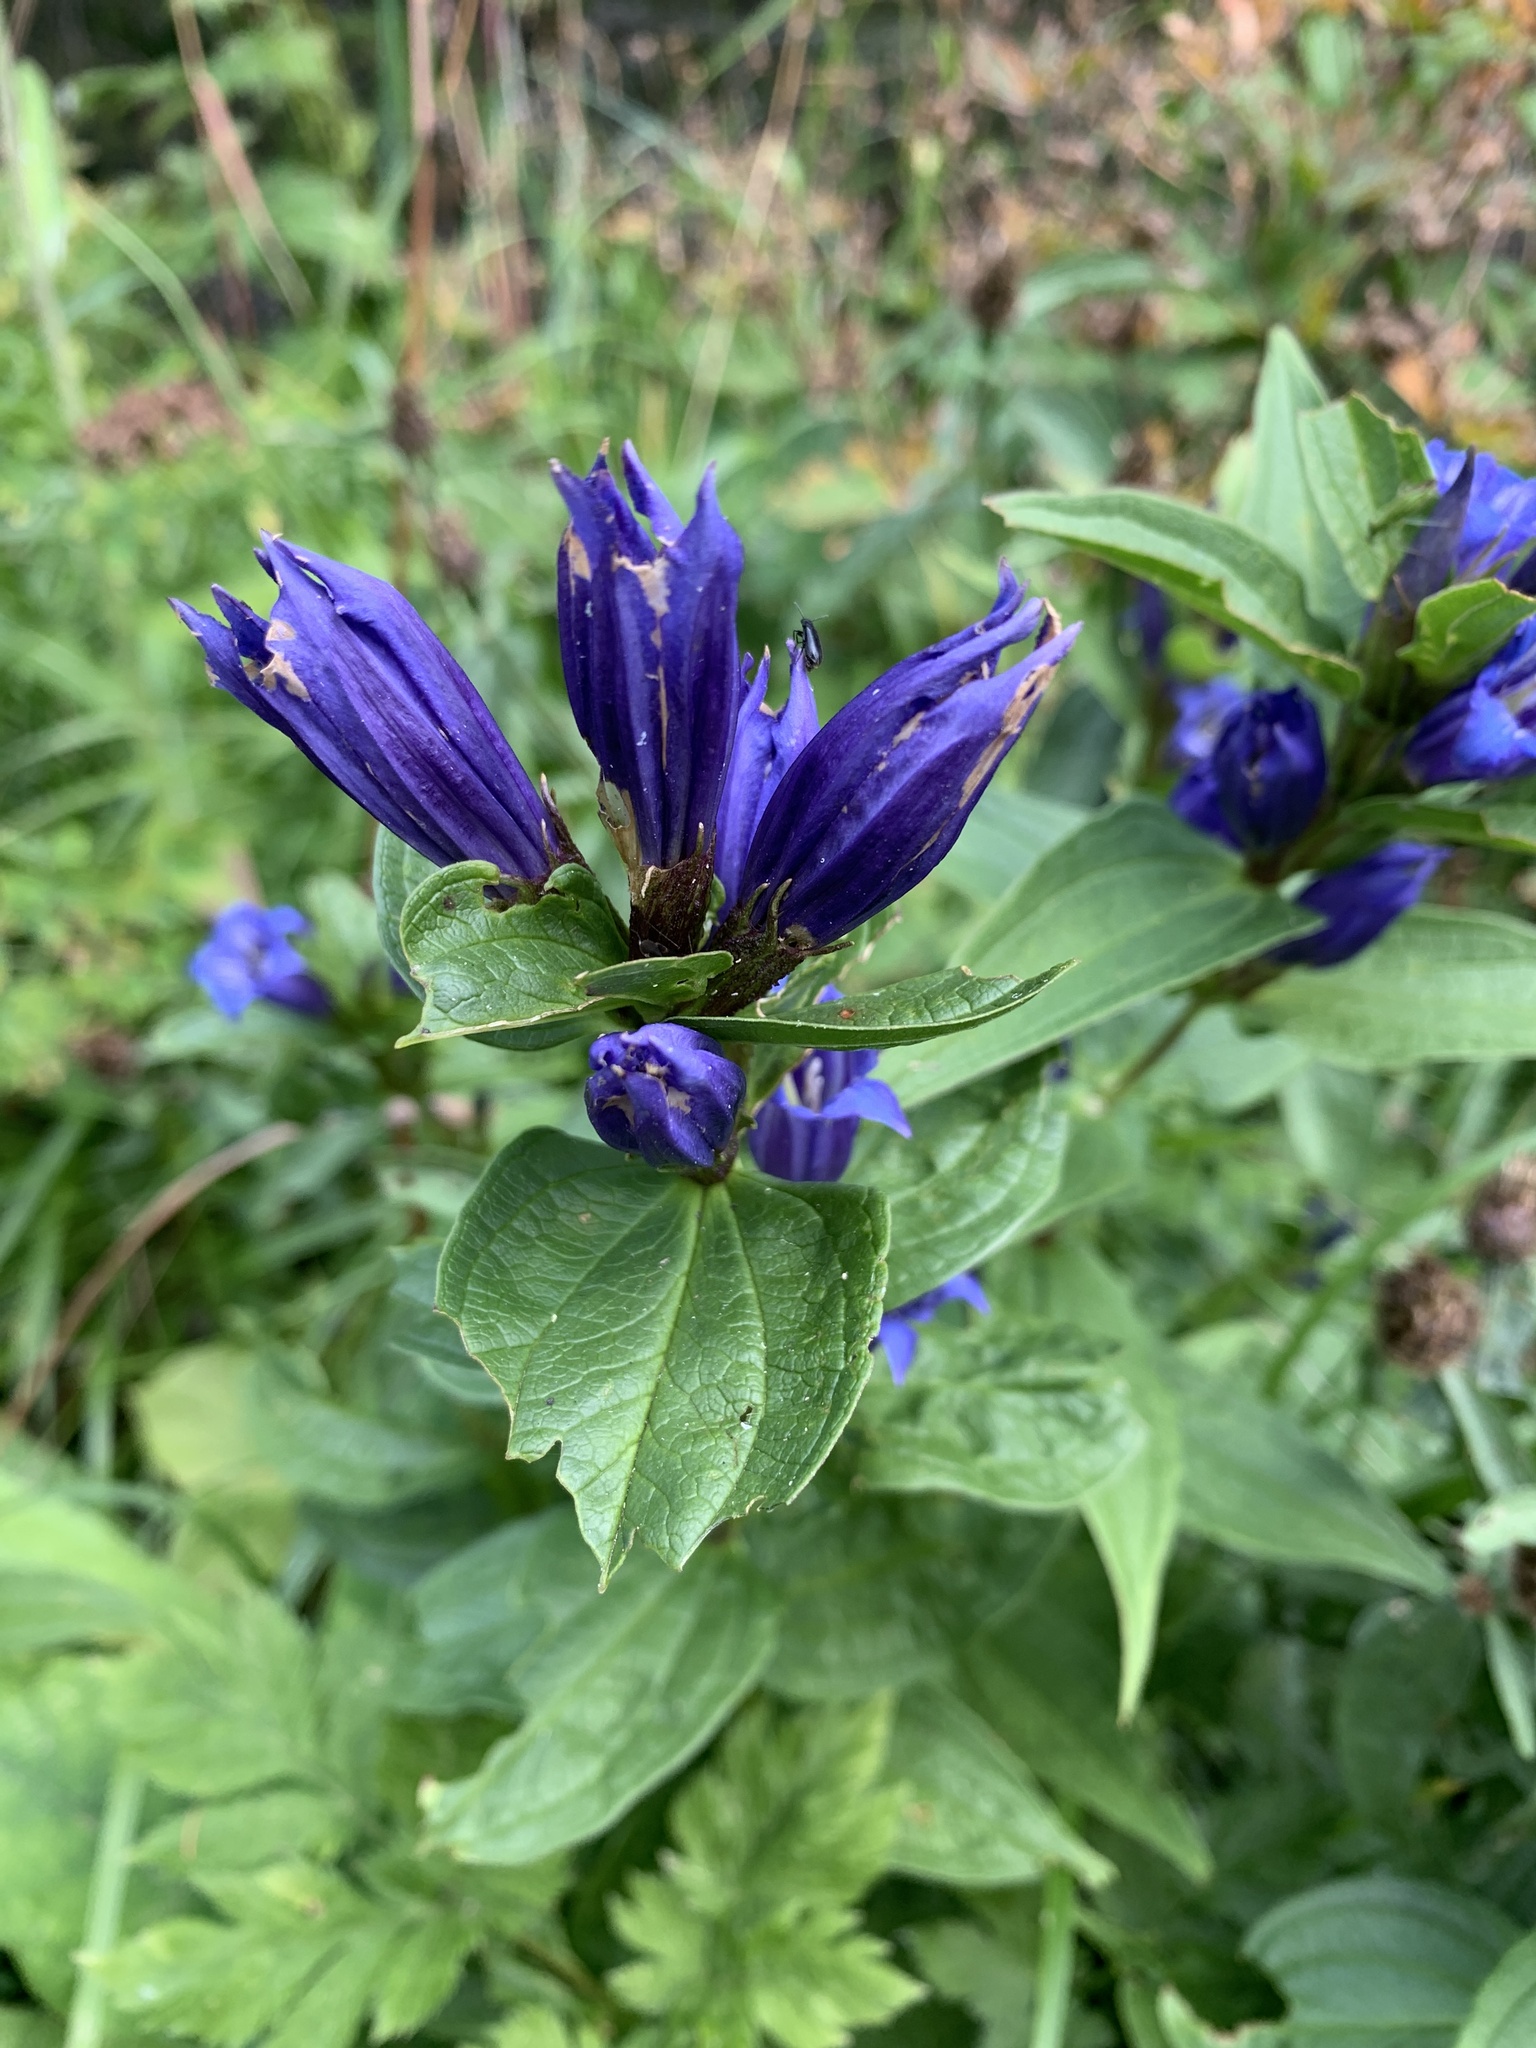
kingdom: Plantae
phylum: Tracheophyta
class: Magnoliopsida
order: Gentianales
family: Gentianaceae
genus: Gentiana
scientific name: Gentiana asclepiadea
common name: Willow gentian
